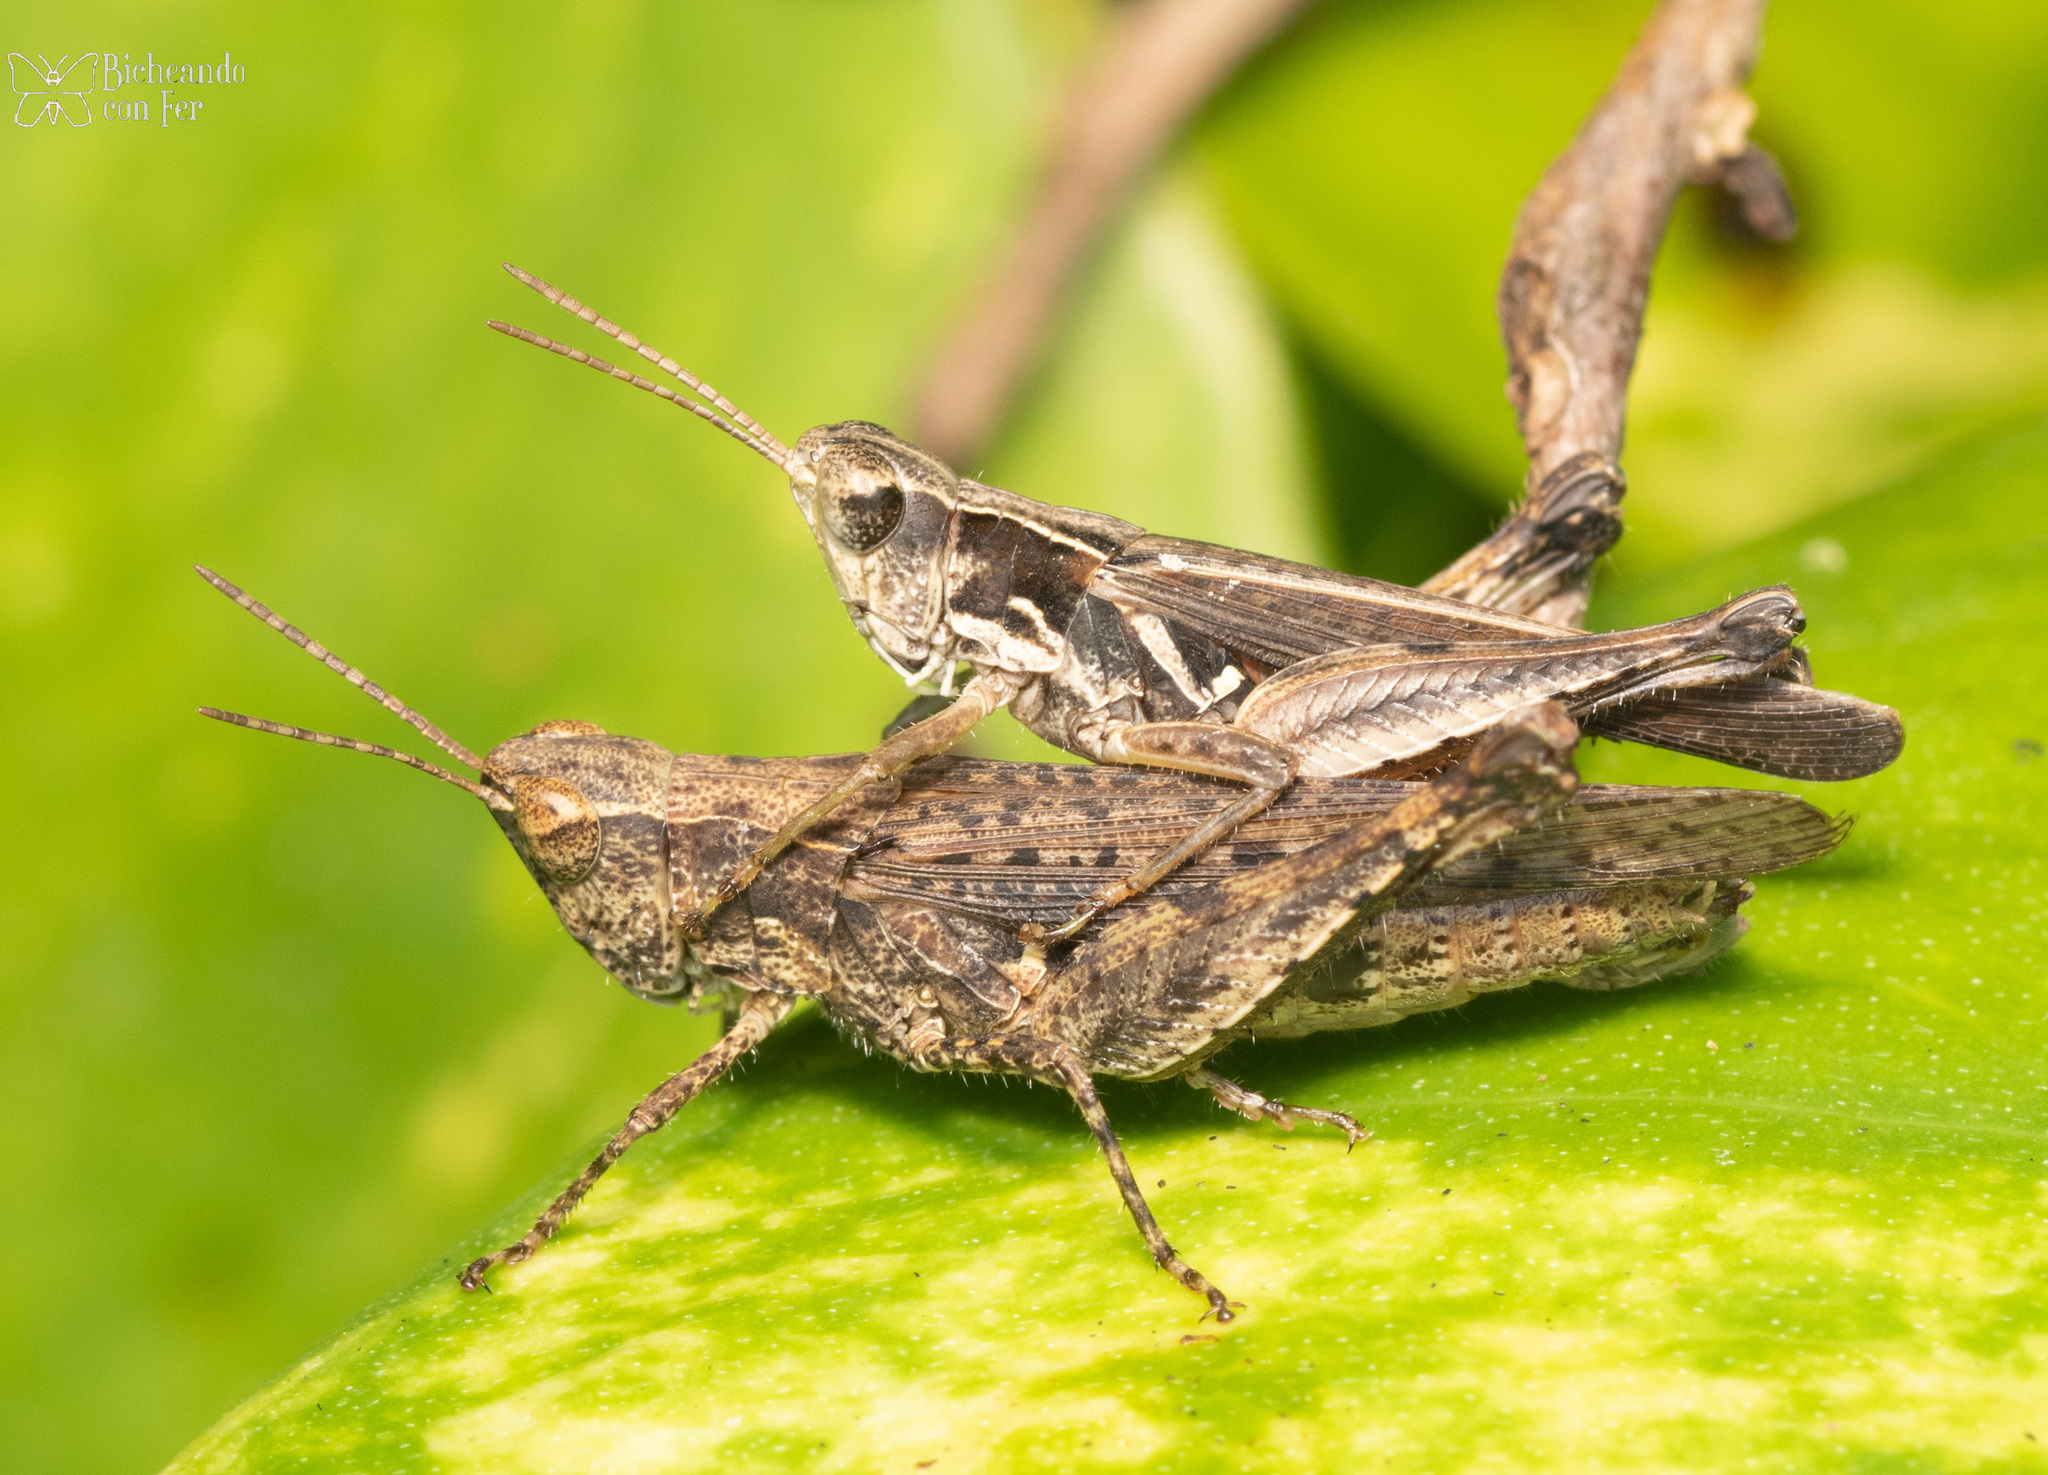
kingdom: Animalia
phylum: Arthropoda
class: Insecta
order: Orthoptera
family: Acrididae
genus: Orphulella
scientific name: Orphulella punctata
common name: Slant-faced grasshopper
